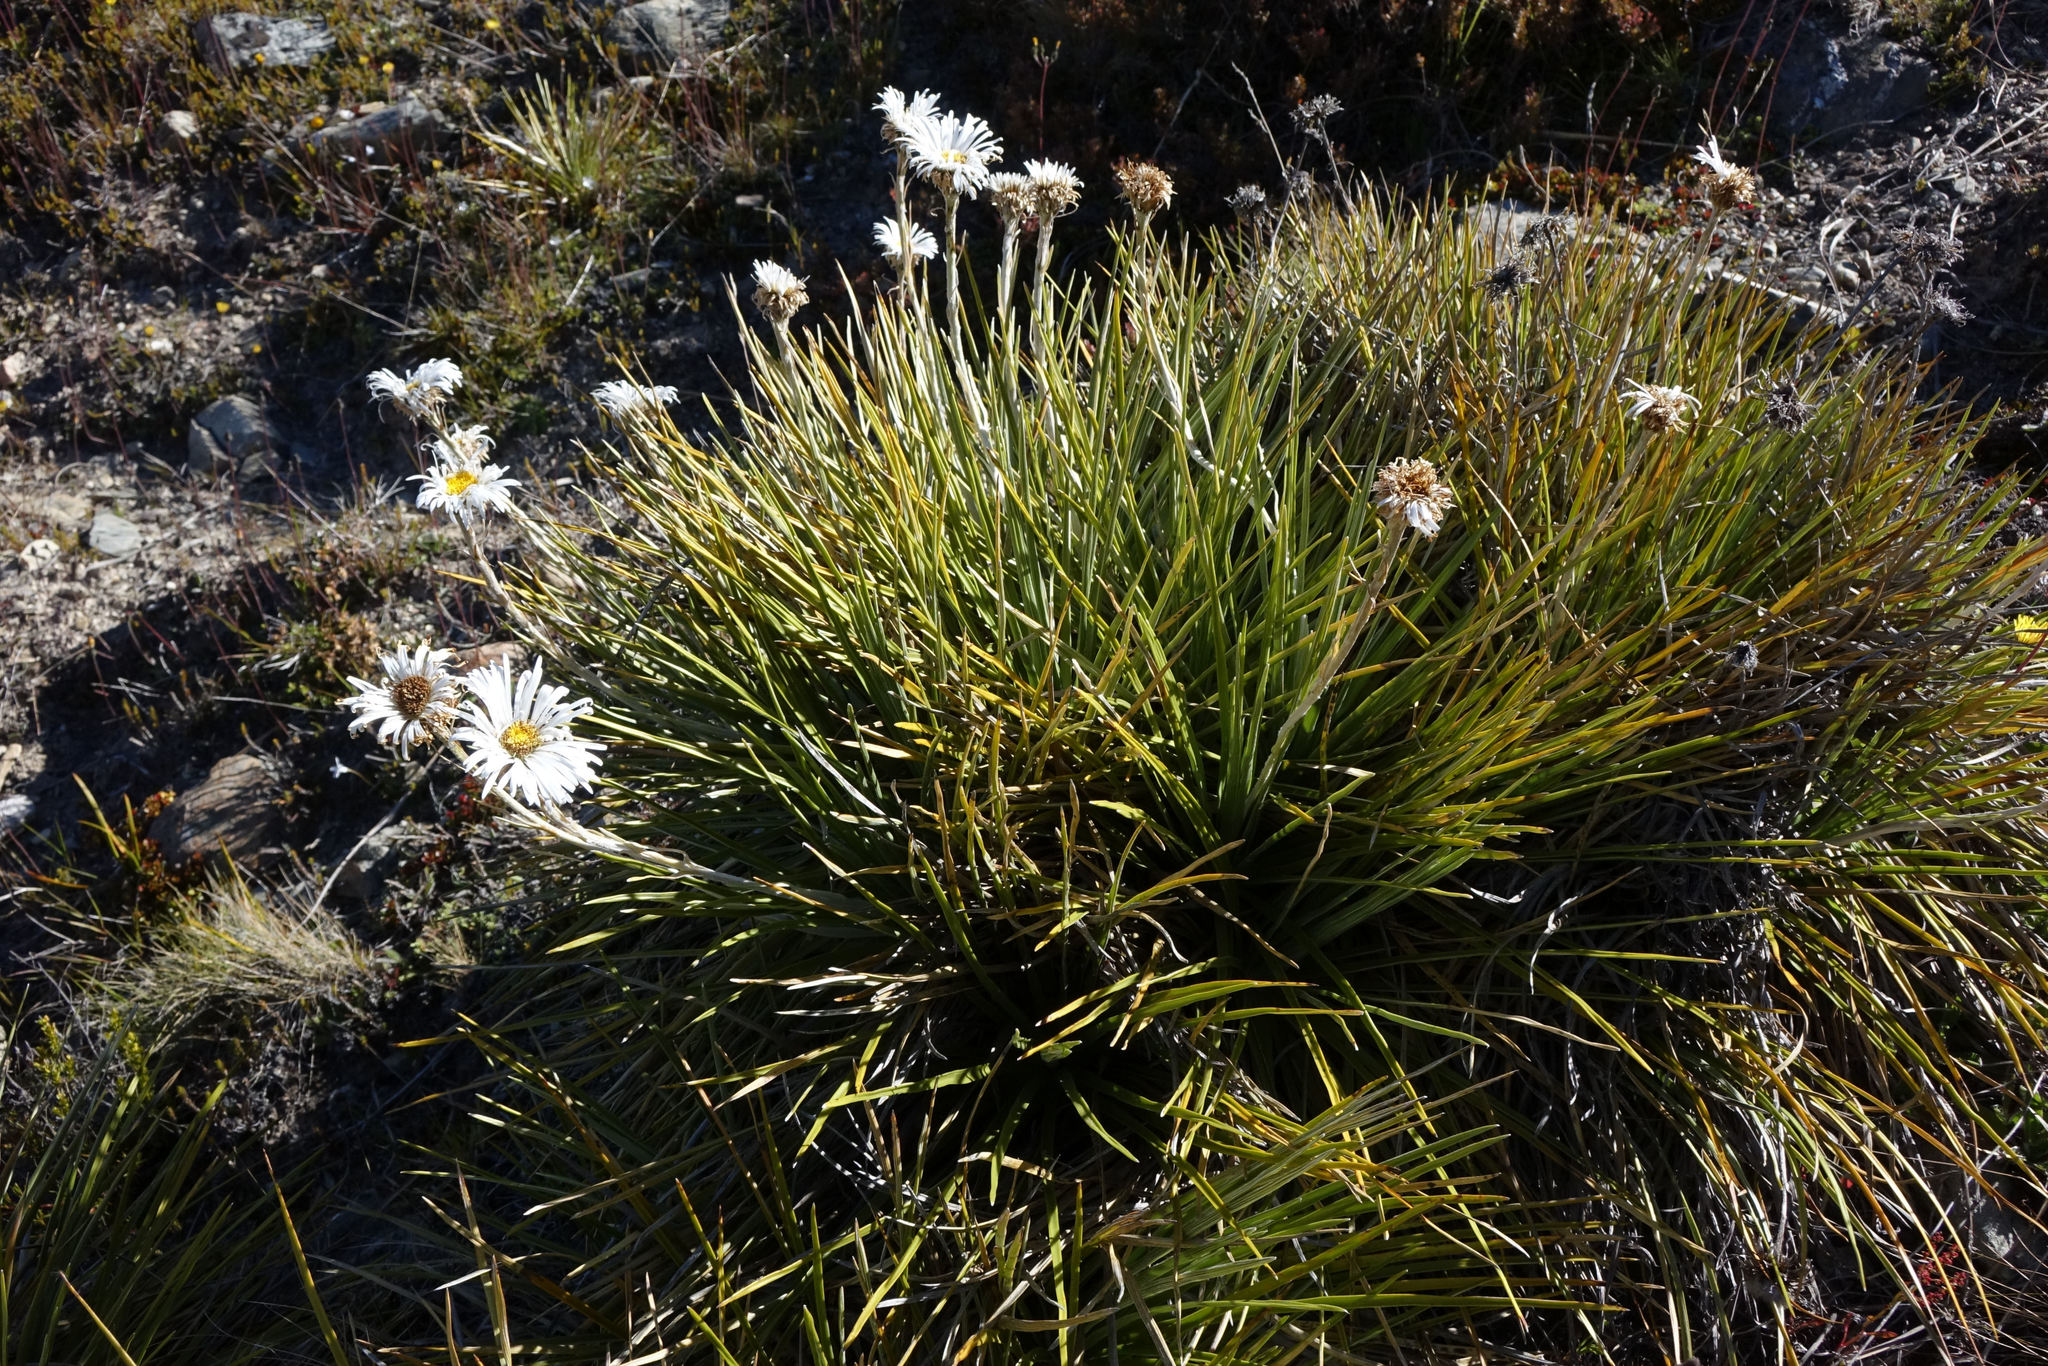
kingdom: Plantae
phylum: Tracheophyta
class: Magnoliopsida
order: Asterales
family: Asteraceae
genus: Celmisia
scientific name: Celmisia lyallii
